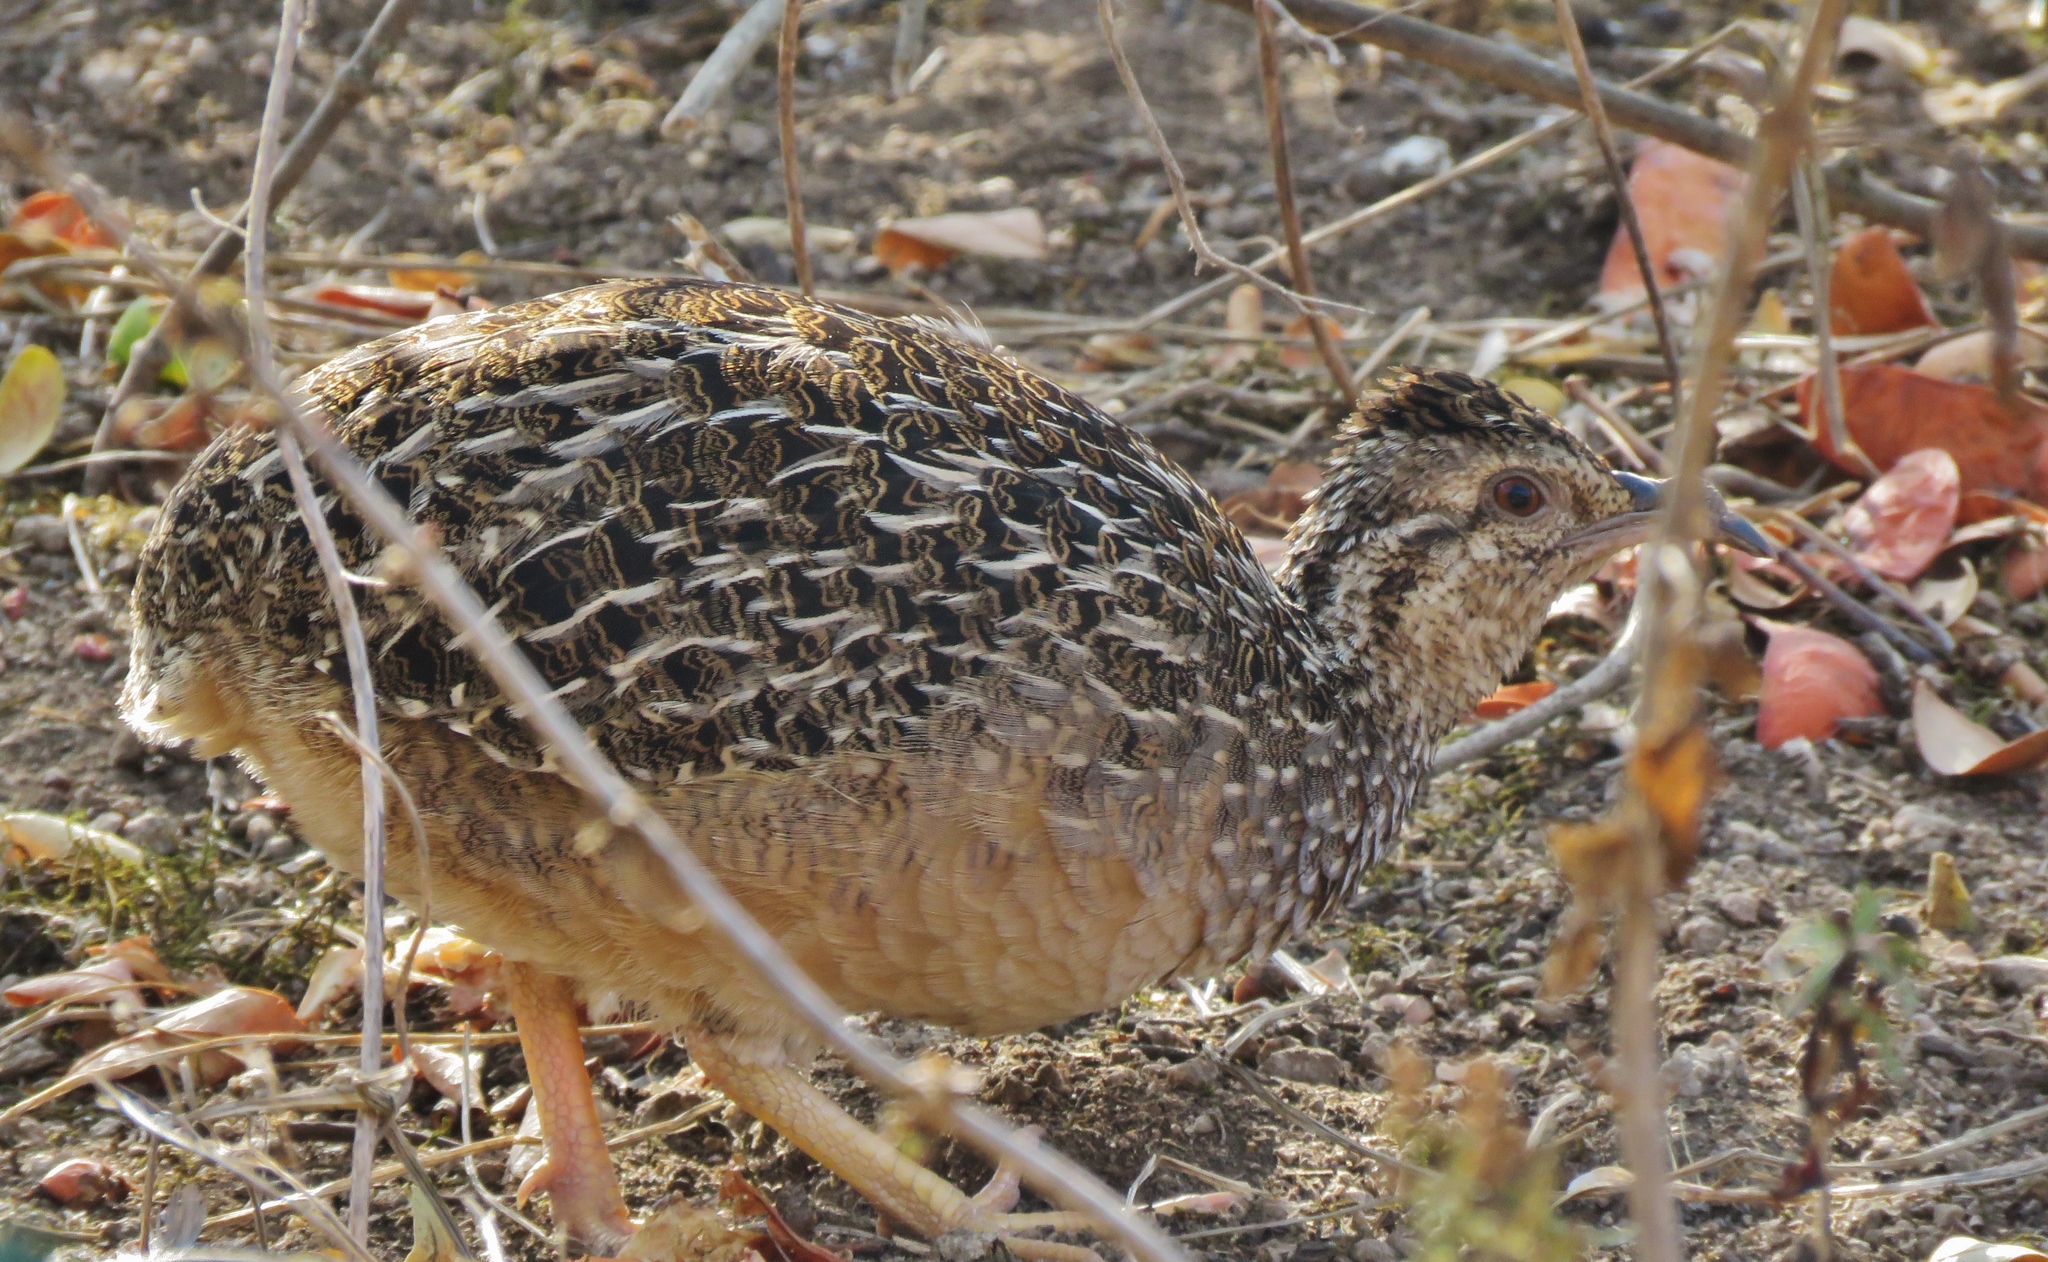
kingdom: Animalia
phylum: Chordata
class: Aves
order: Tinamiformes
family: Tinamidae
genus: Nothoprocta
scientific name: Nothoprocta pentlandii
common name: Andean tinamou
